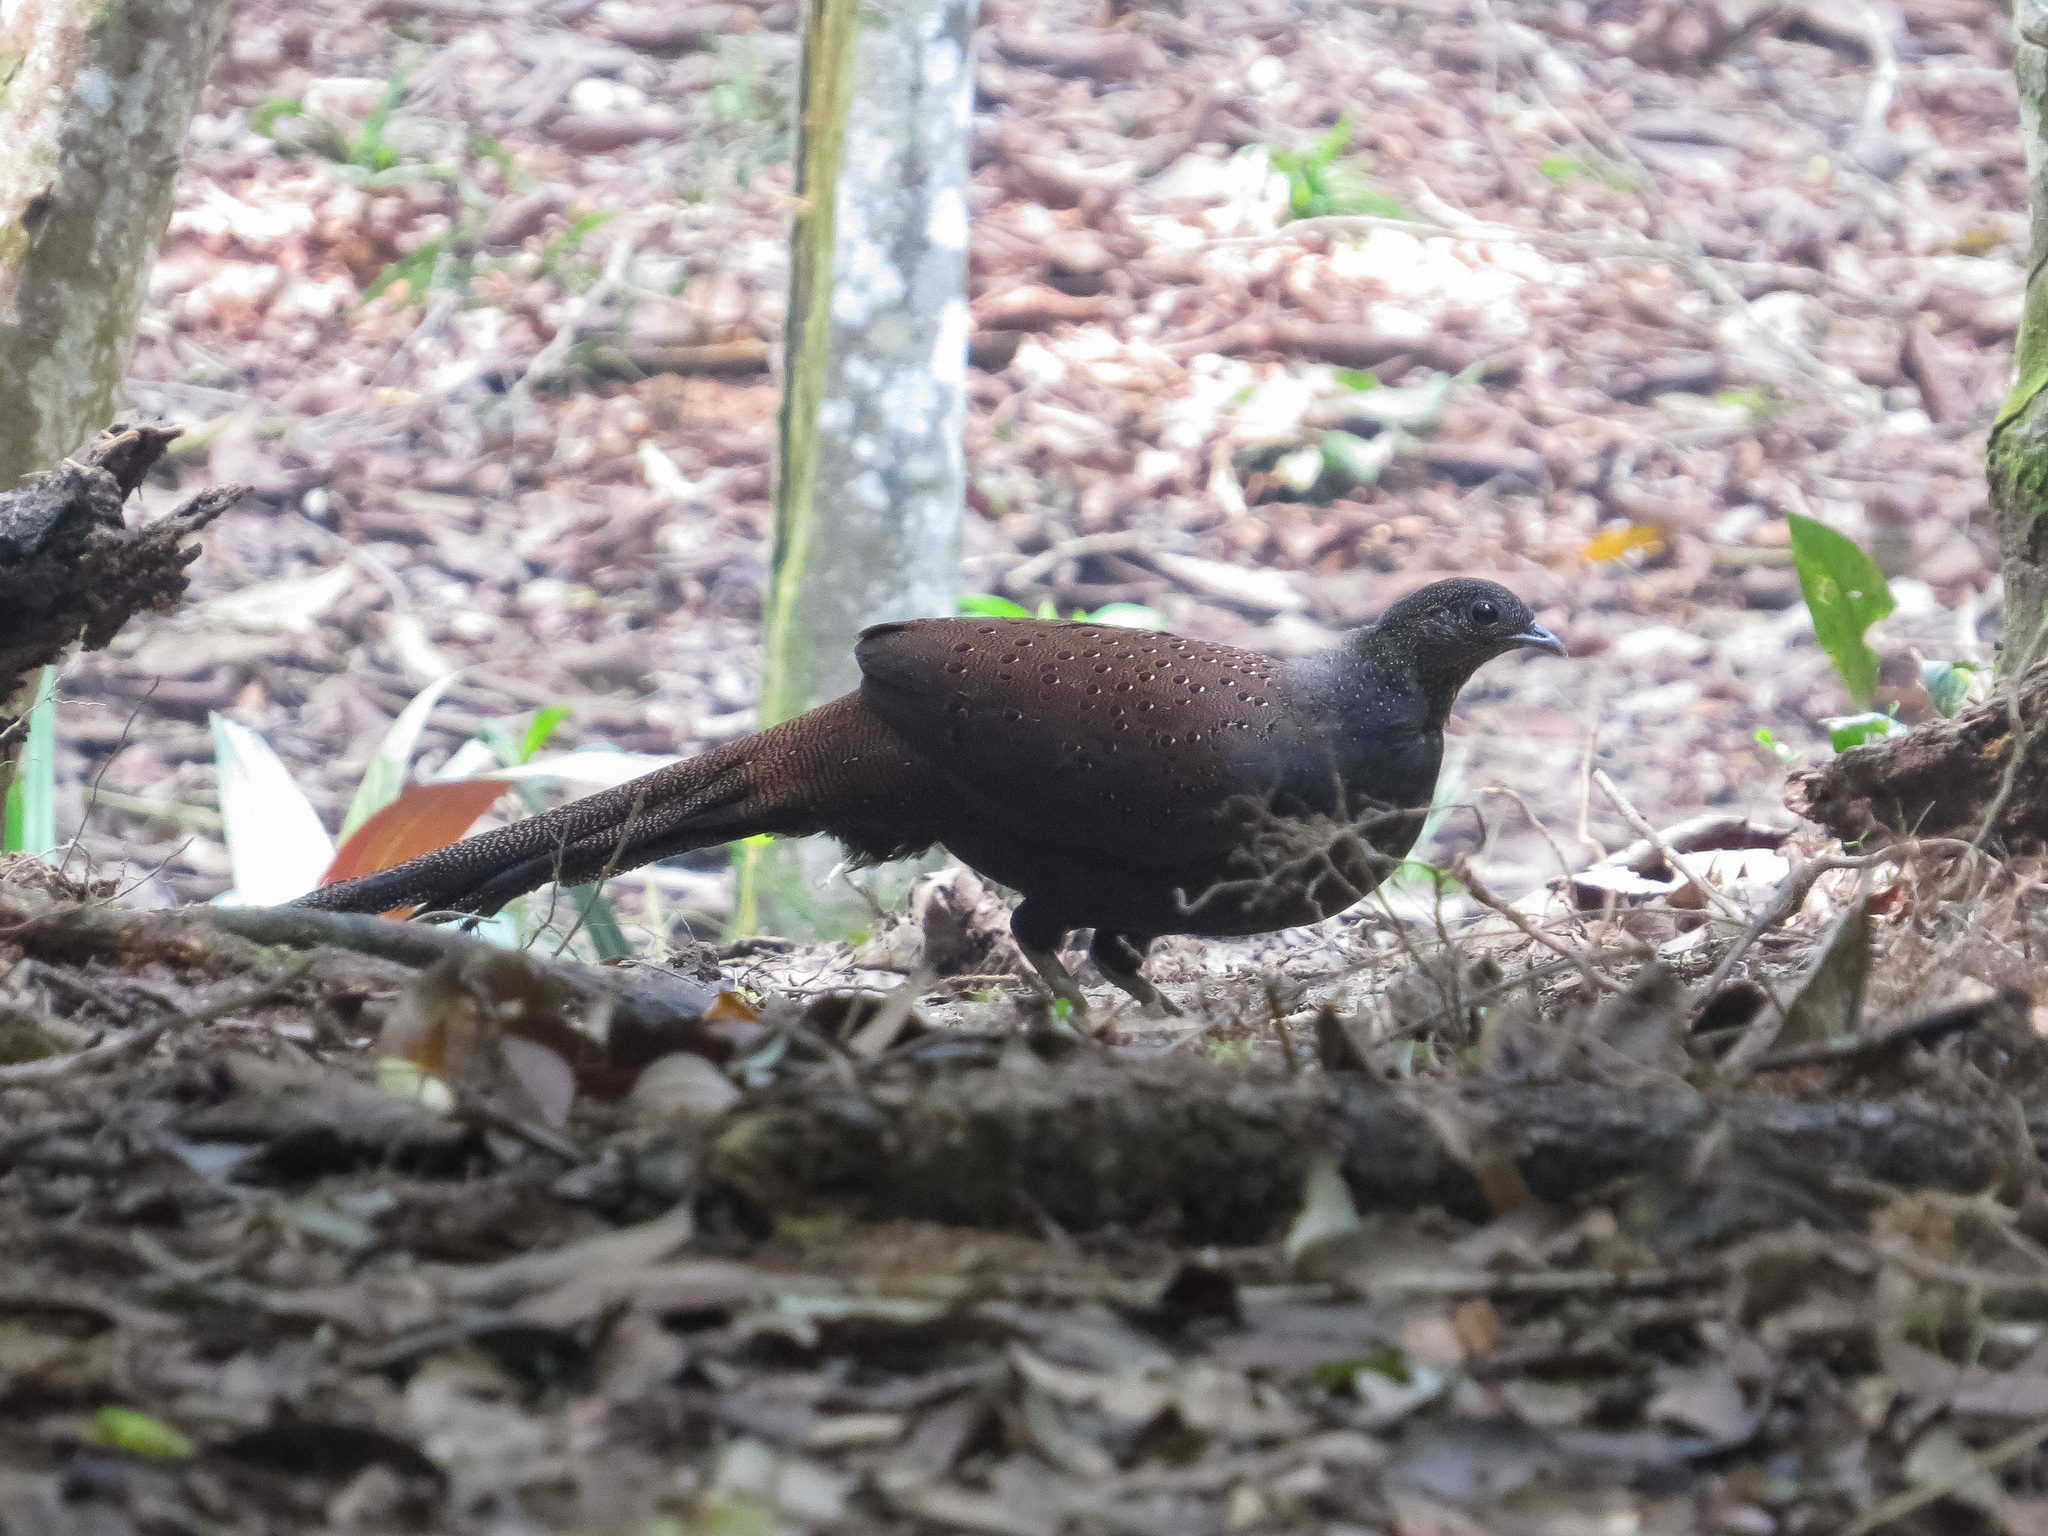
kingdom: Animalia
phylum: Chordata
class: Aves
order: Galliformes
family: Phasianidae
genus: Polyplectron
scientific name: Polyplectron inopinatum
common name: Mountain peacock-pheasant
